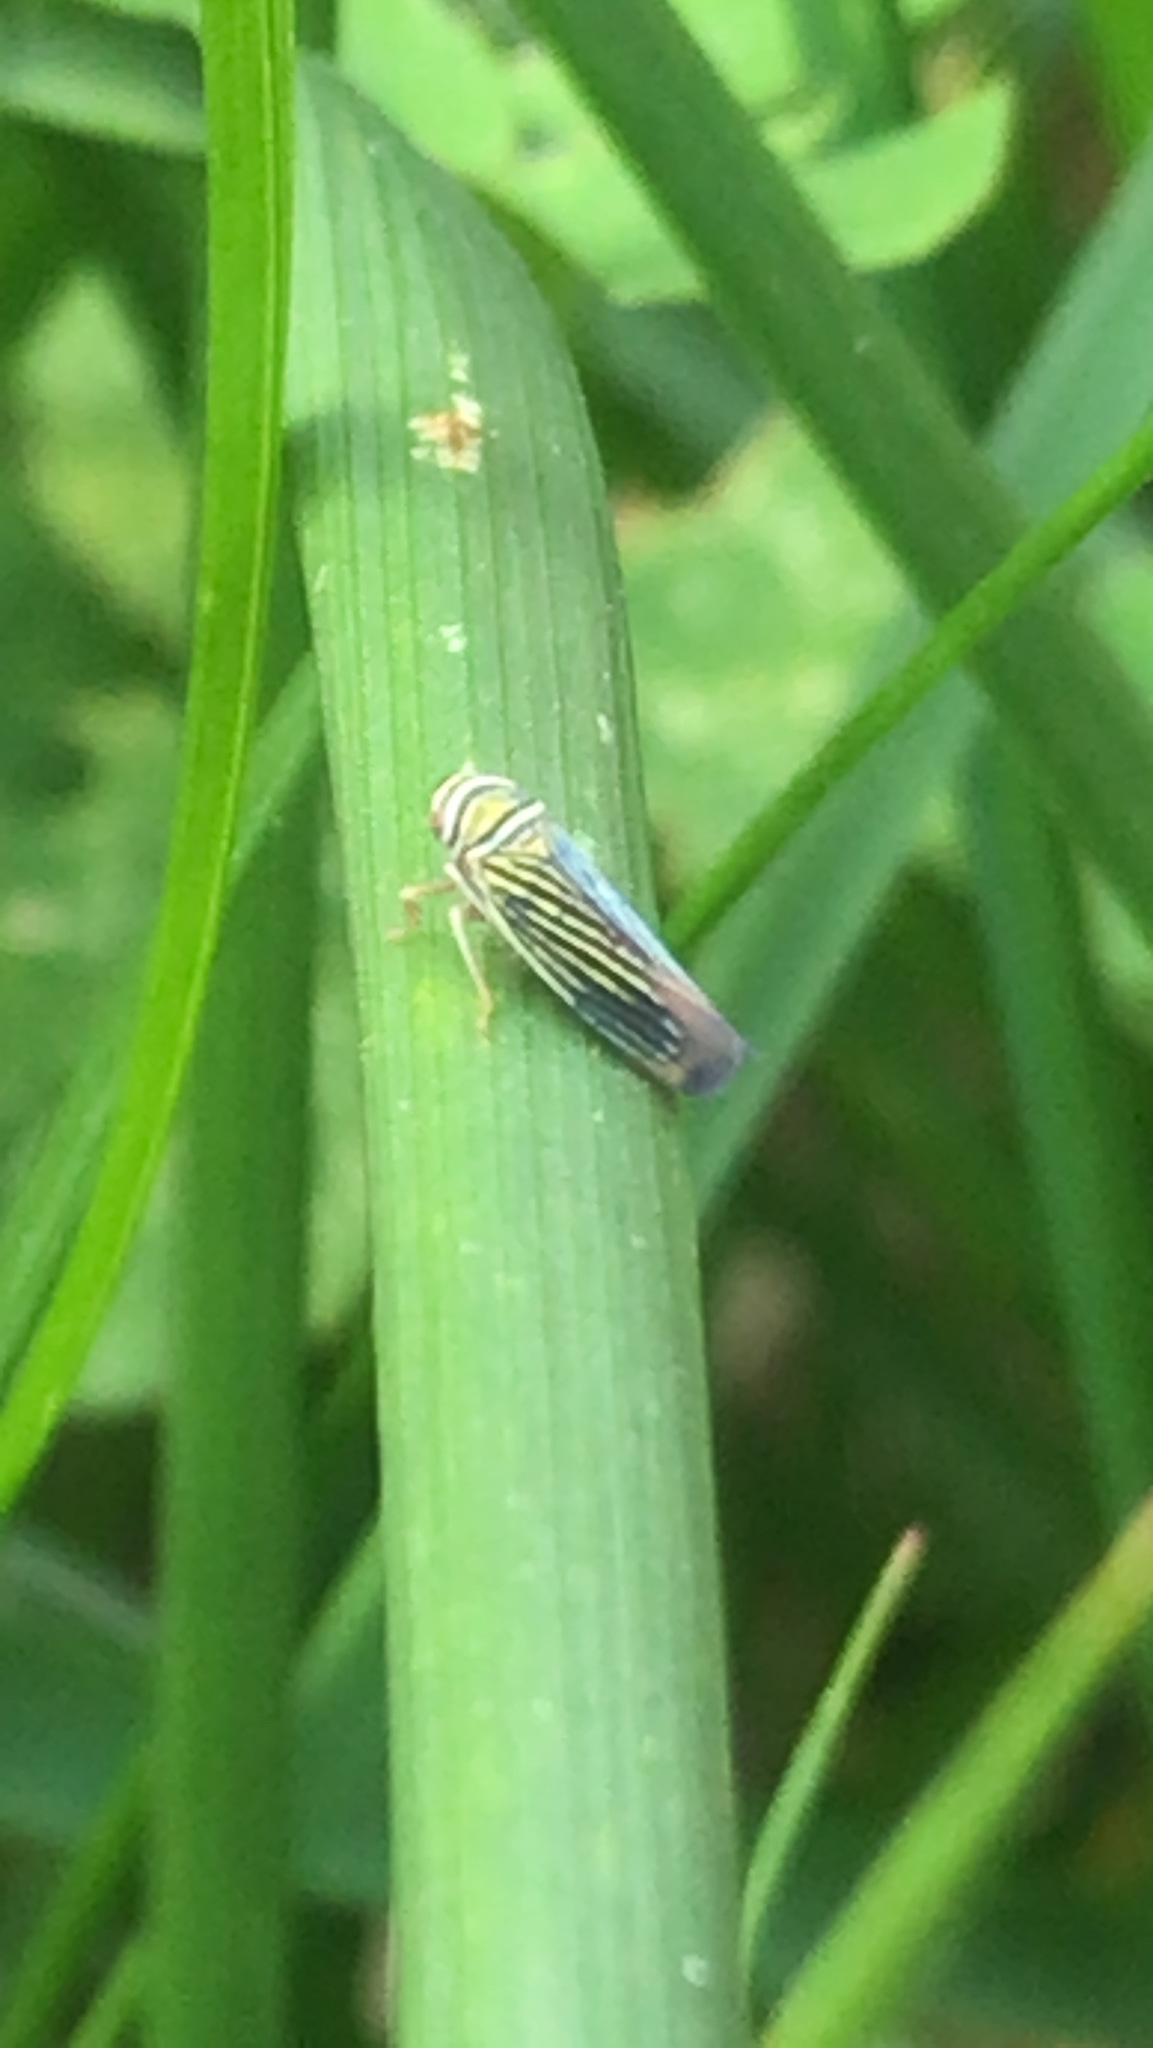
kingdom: Animalia
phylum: Arthropoda
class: Insecta
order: Hemiptera
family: Cicadellidae
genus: Tylozygus
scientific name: Tylozygus bifidus
